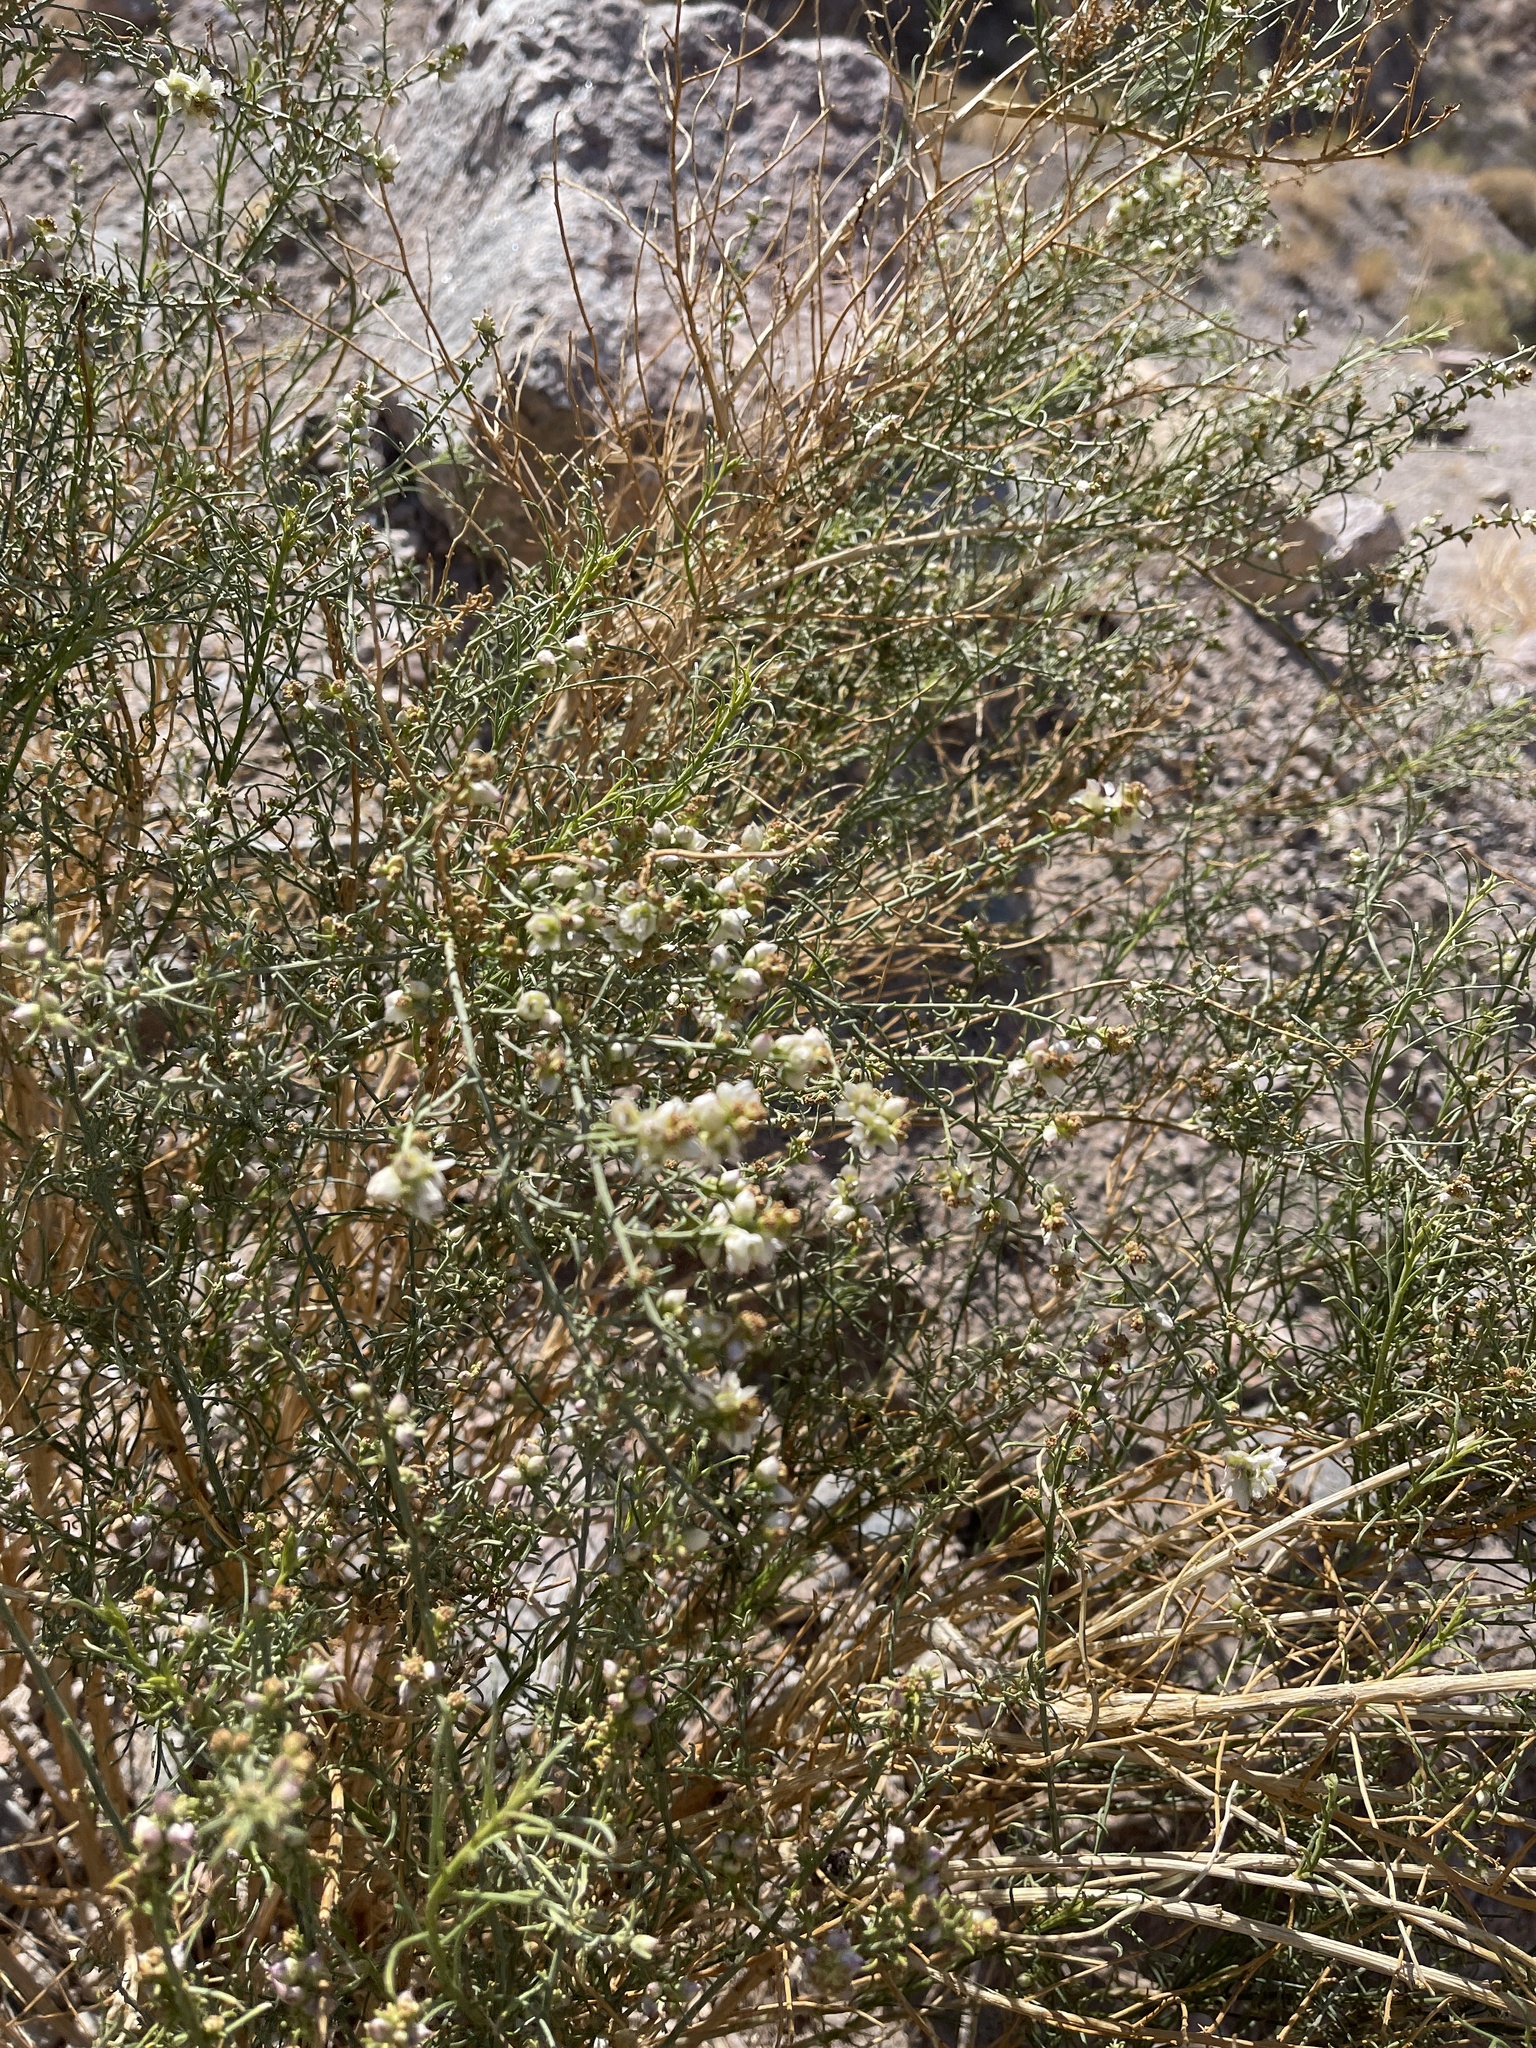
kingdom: Plantae
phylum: Tracheophyta
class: Magnoliopsida
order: Asterales
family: Asteraceae
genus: Ambrosia
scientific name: Ambrosia salsola
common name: Burrobrush
